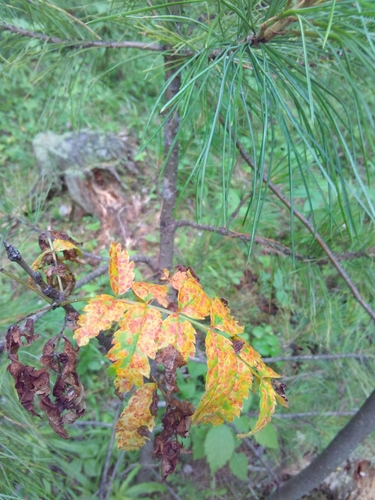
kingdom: Fungi
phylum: Basidiomycota
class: Pucciniomycetes
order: Pucciniales
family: Gymnosporangiaceae
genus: Gymnosporangium
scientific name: Gymnosporangium cornutum
